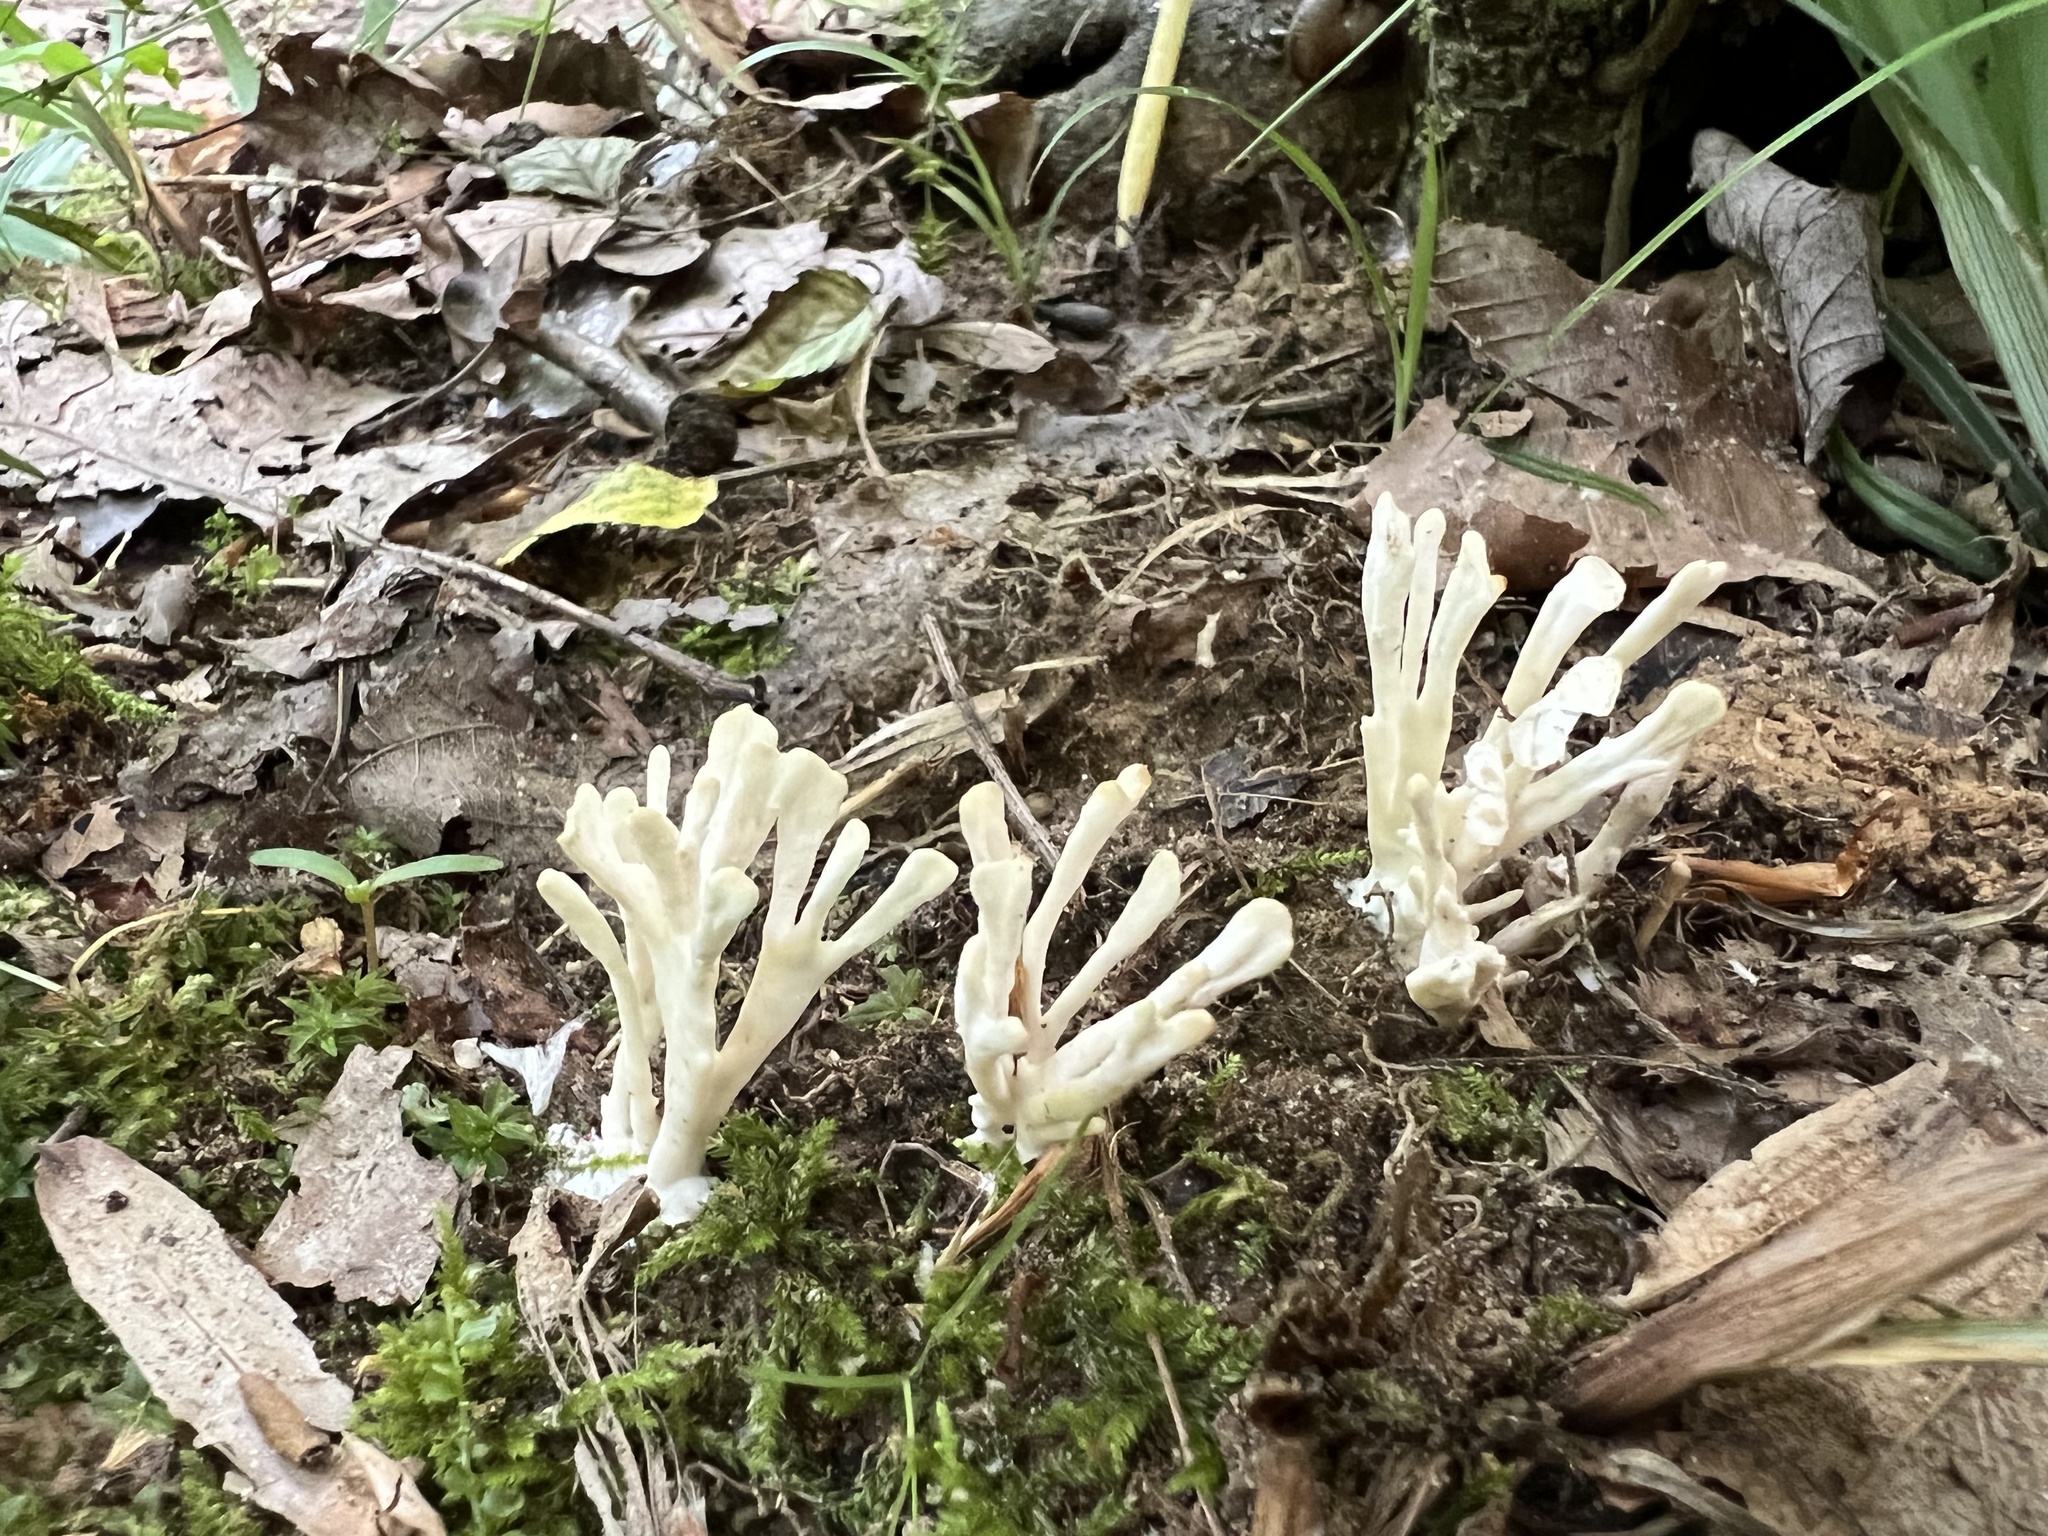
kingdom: Fungi
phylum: Basidiomycota
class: Agaricomycetes
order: Sebacinales
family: Sebacinaceae
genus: Sebacina
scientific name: Sebacina schweinitzii
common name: Jellied false coral fungus
